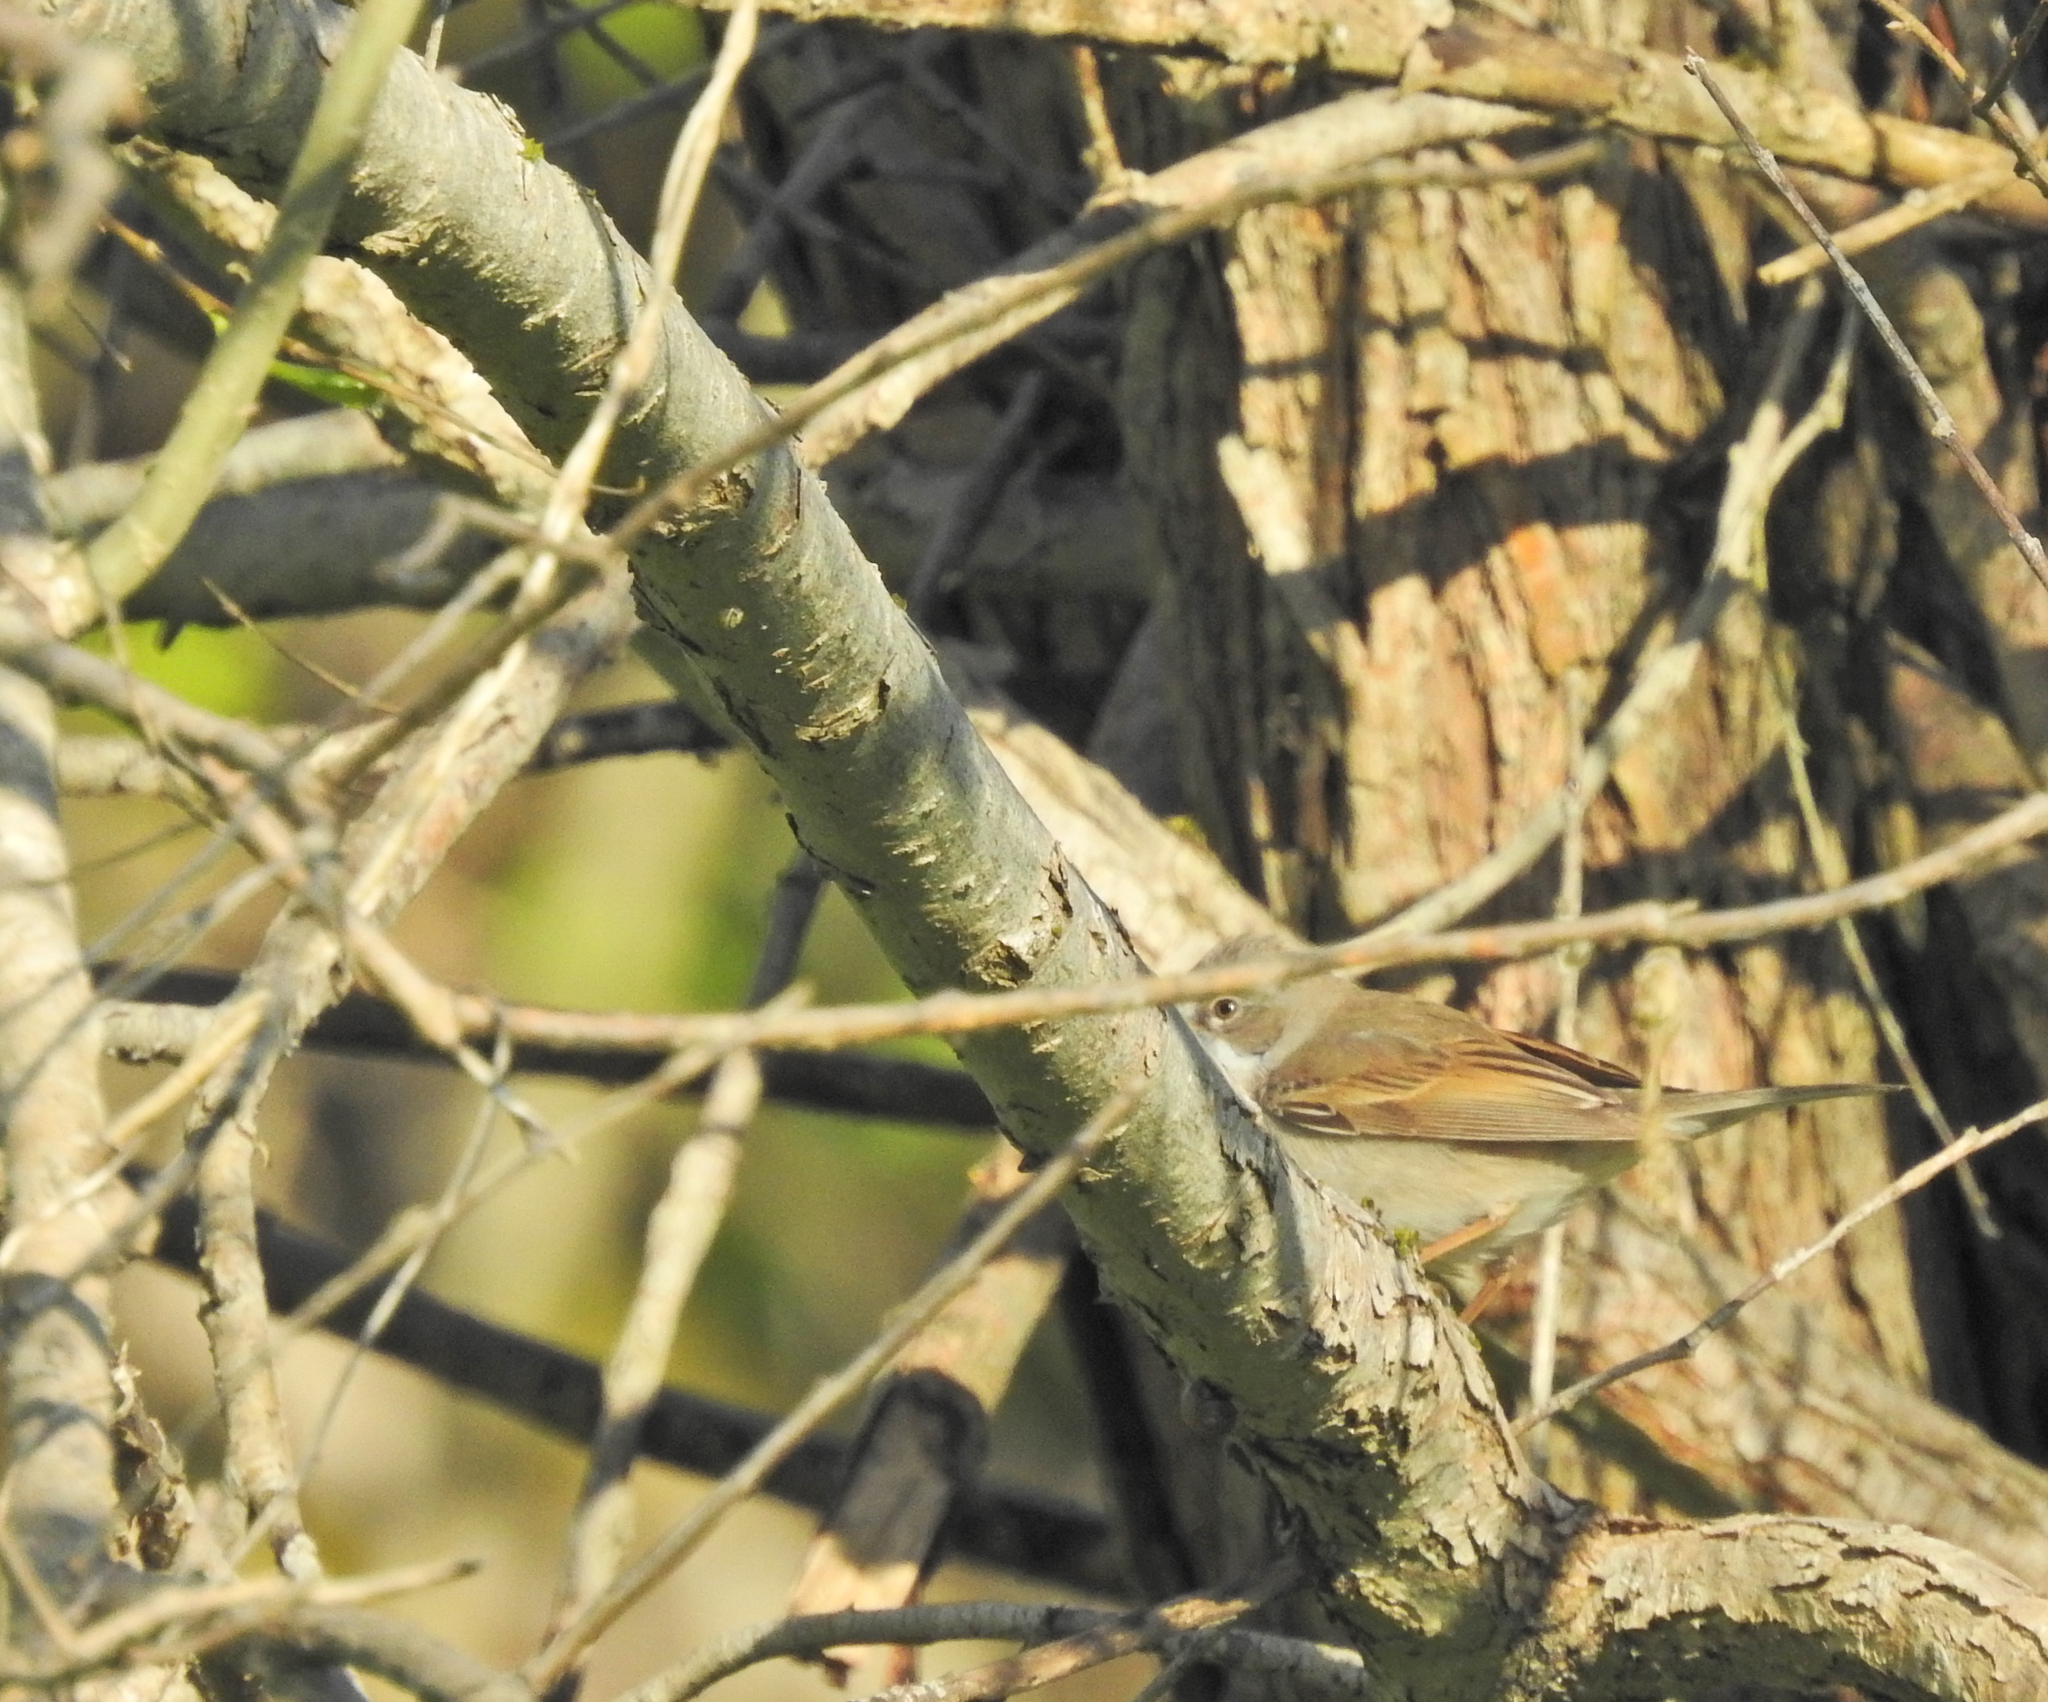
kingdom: Animalia
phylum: Chordata
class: Aves
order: Passeriformes
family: Sylviidae
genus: Sylvia
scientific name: Sylvia communis
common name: Common whitethroat
